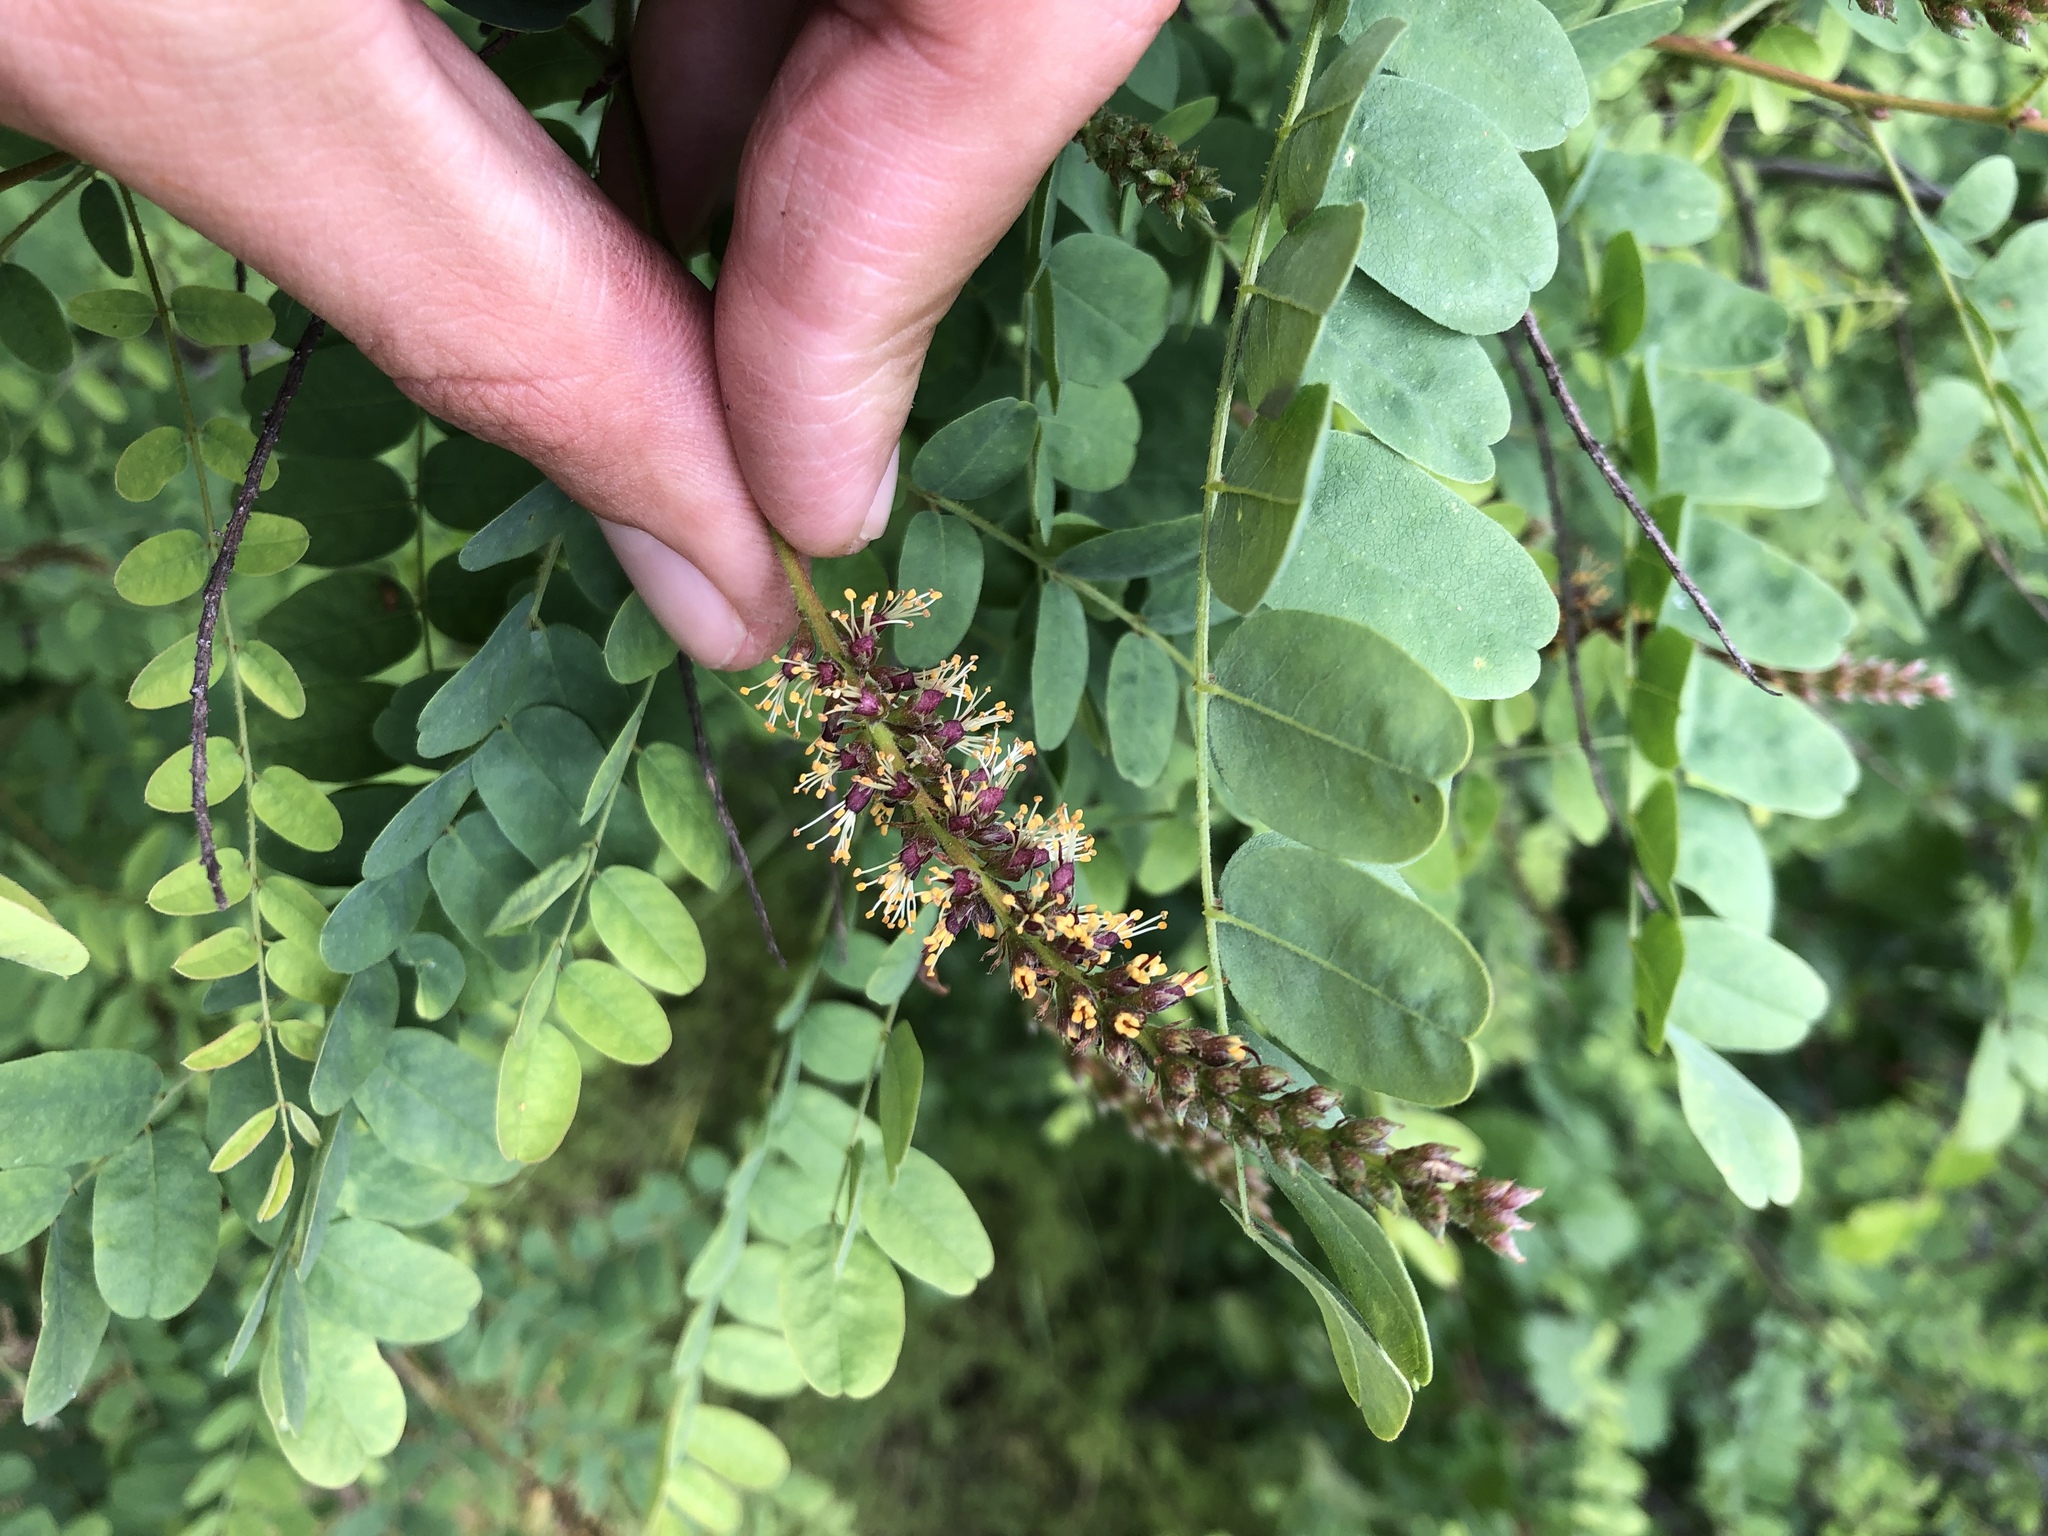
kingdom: Plantae
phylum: Tracheophyta
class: Magnoliopsida
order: Fabales
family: Fabaceae
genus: Amorpha
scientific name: Amorpha californica
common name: California indigobush
